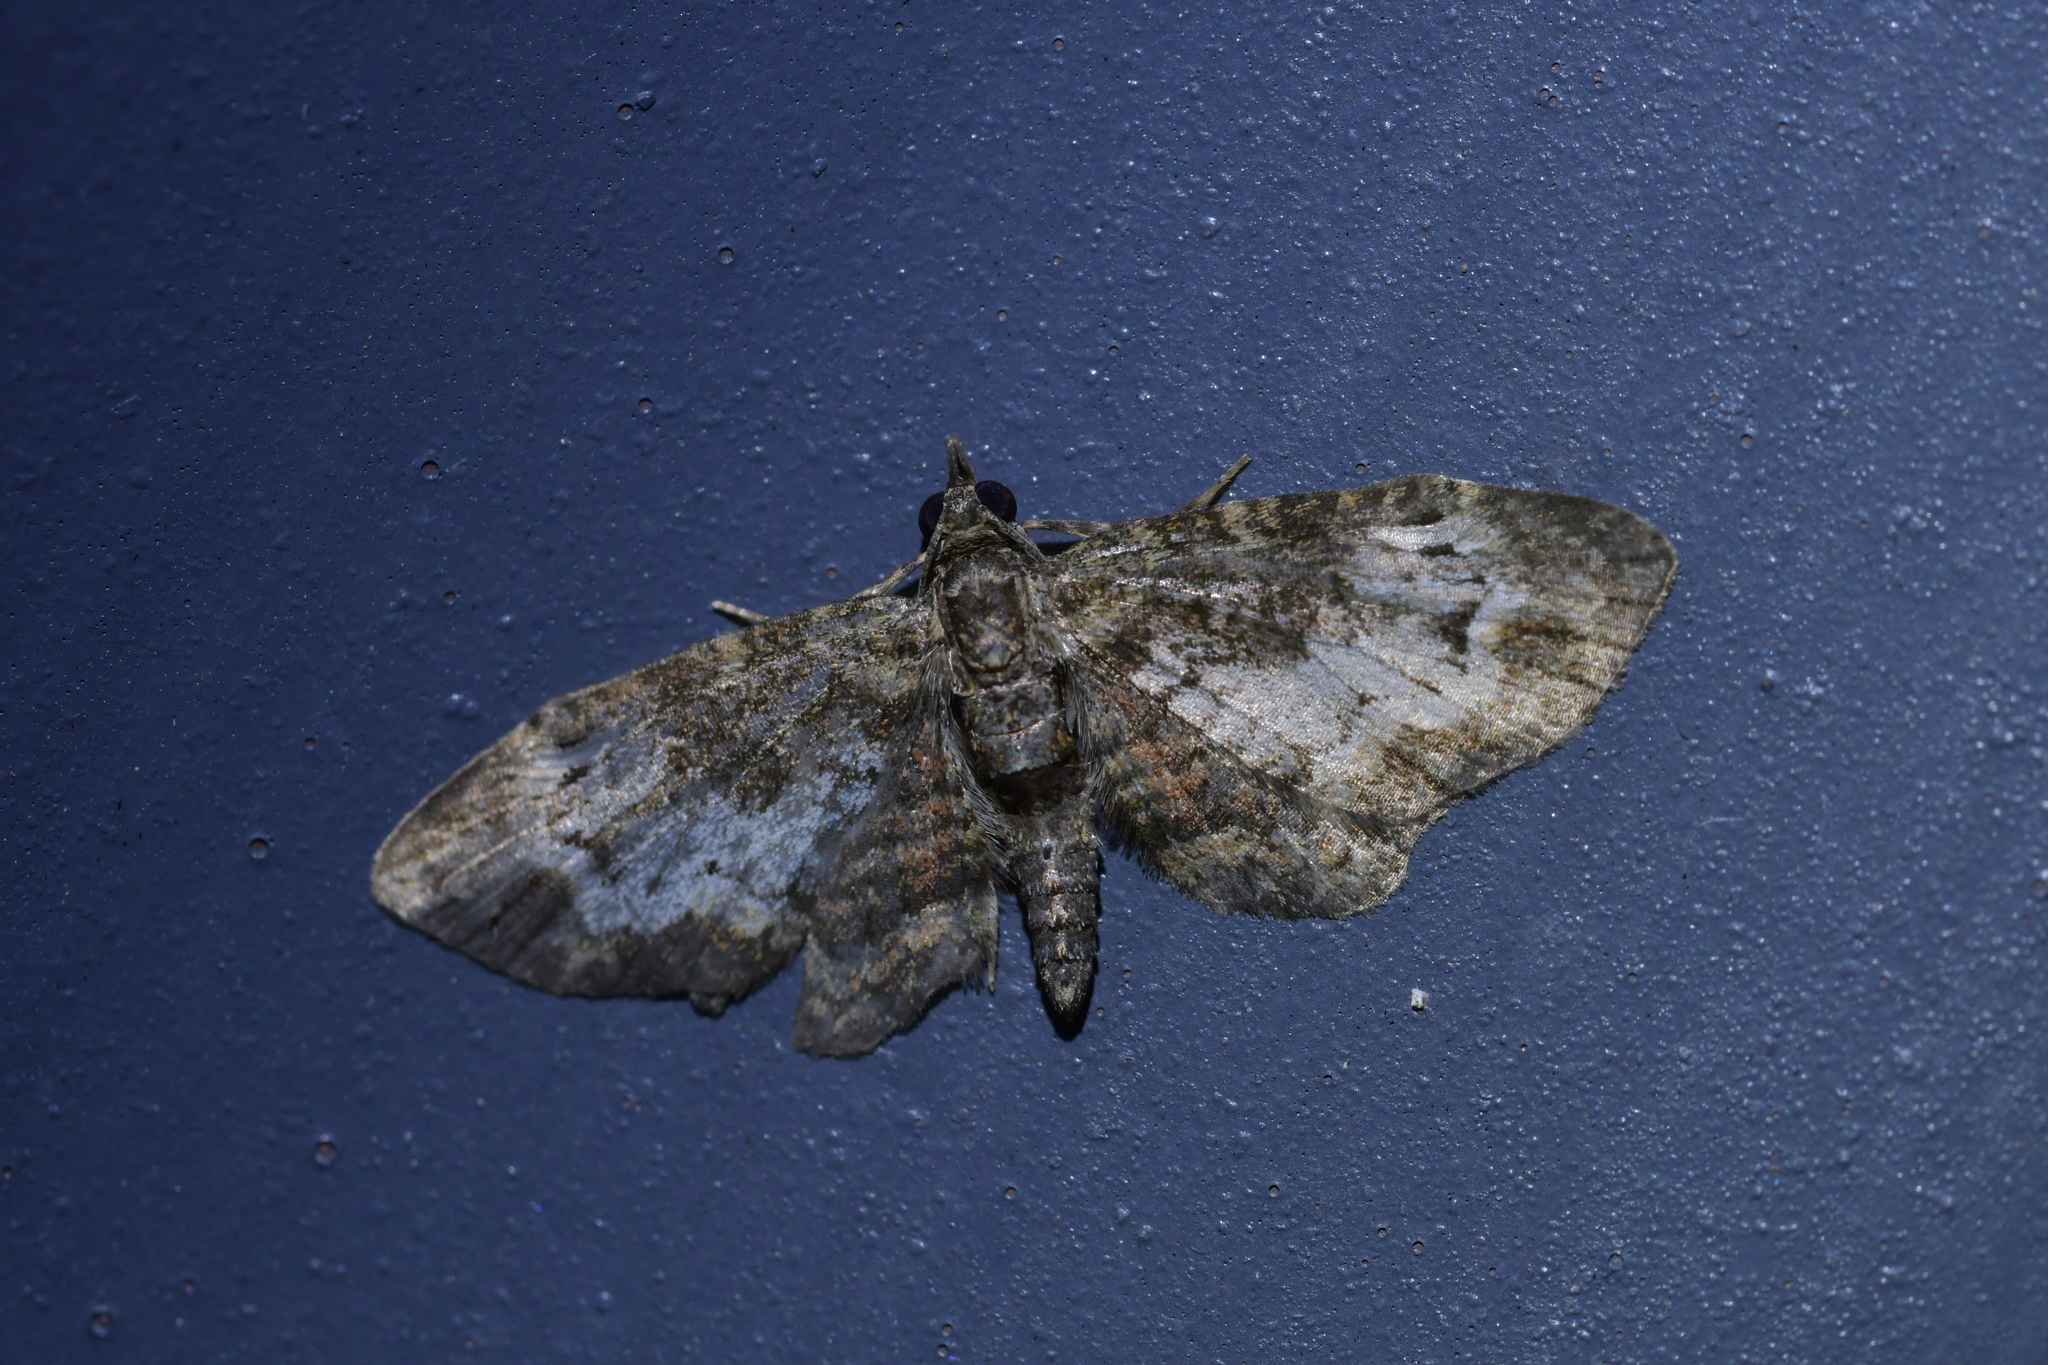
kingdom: Animalia
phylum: Arthropoda
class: Insecta
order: Lepidoptera
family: Geometridae
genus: Pasiphilodes
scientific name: Pasiphilodes testulata
